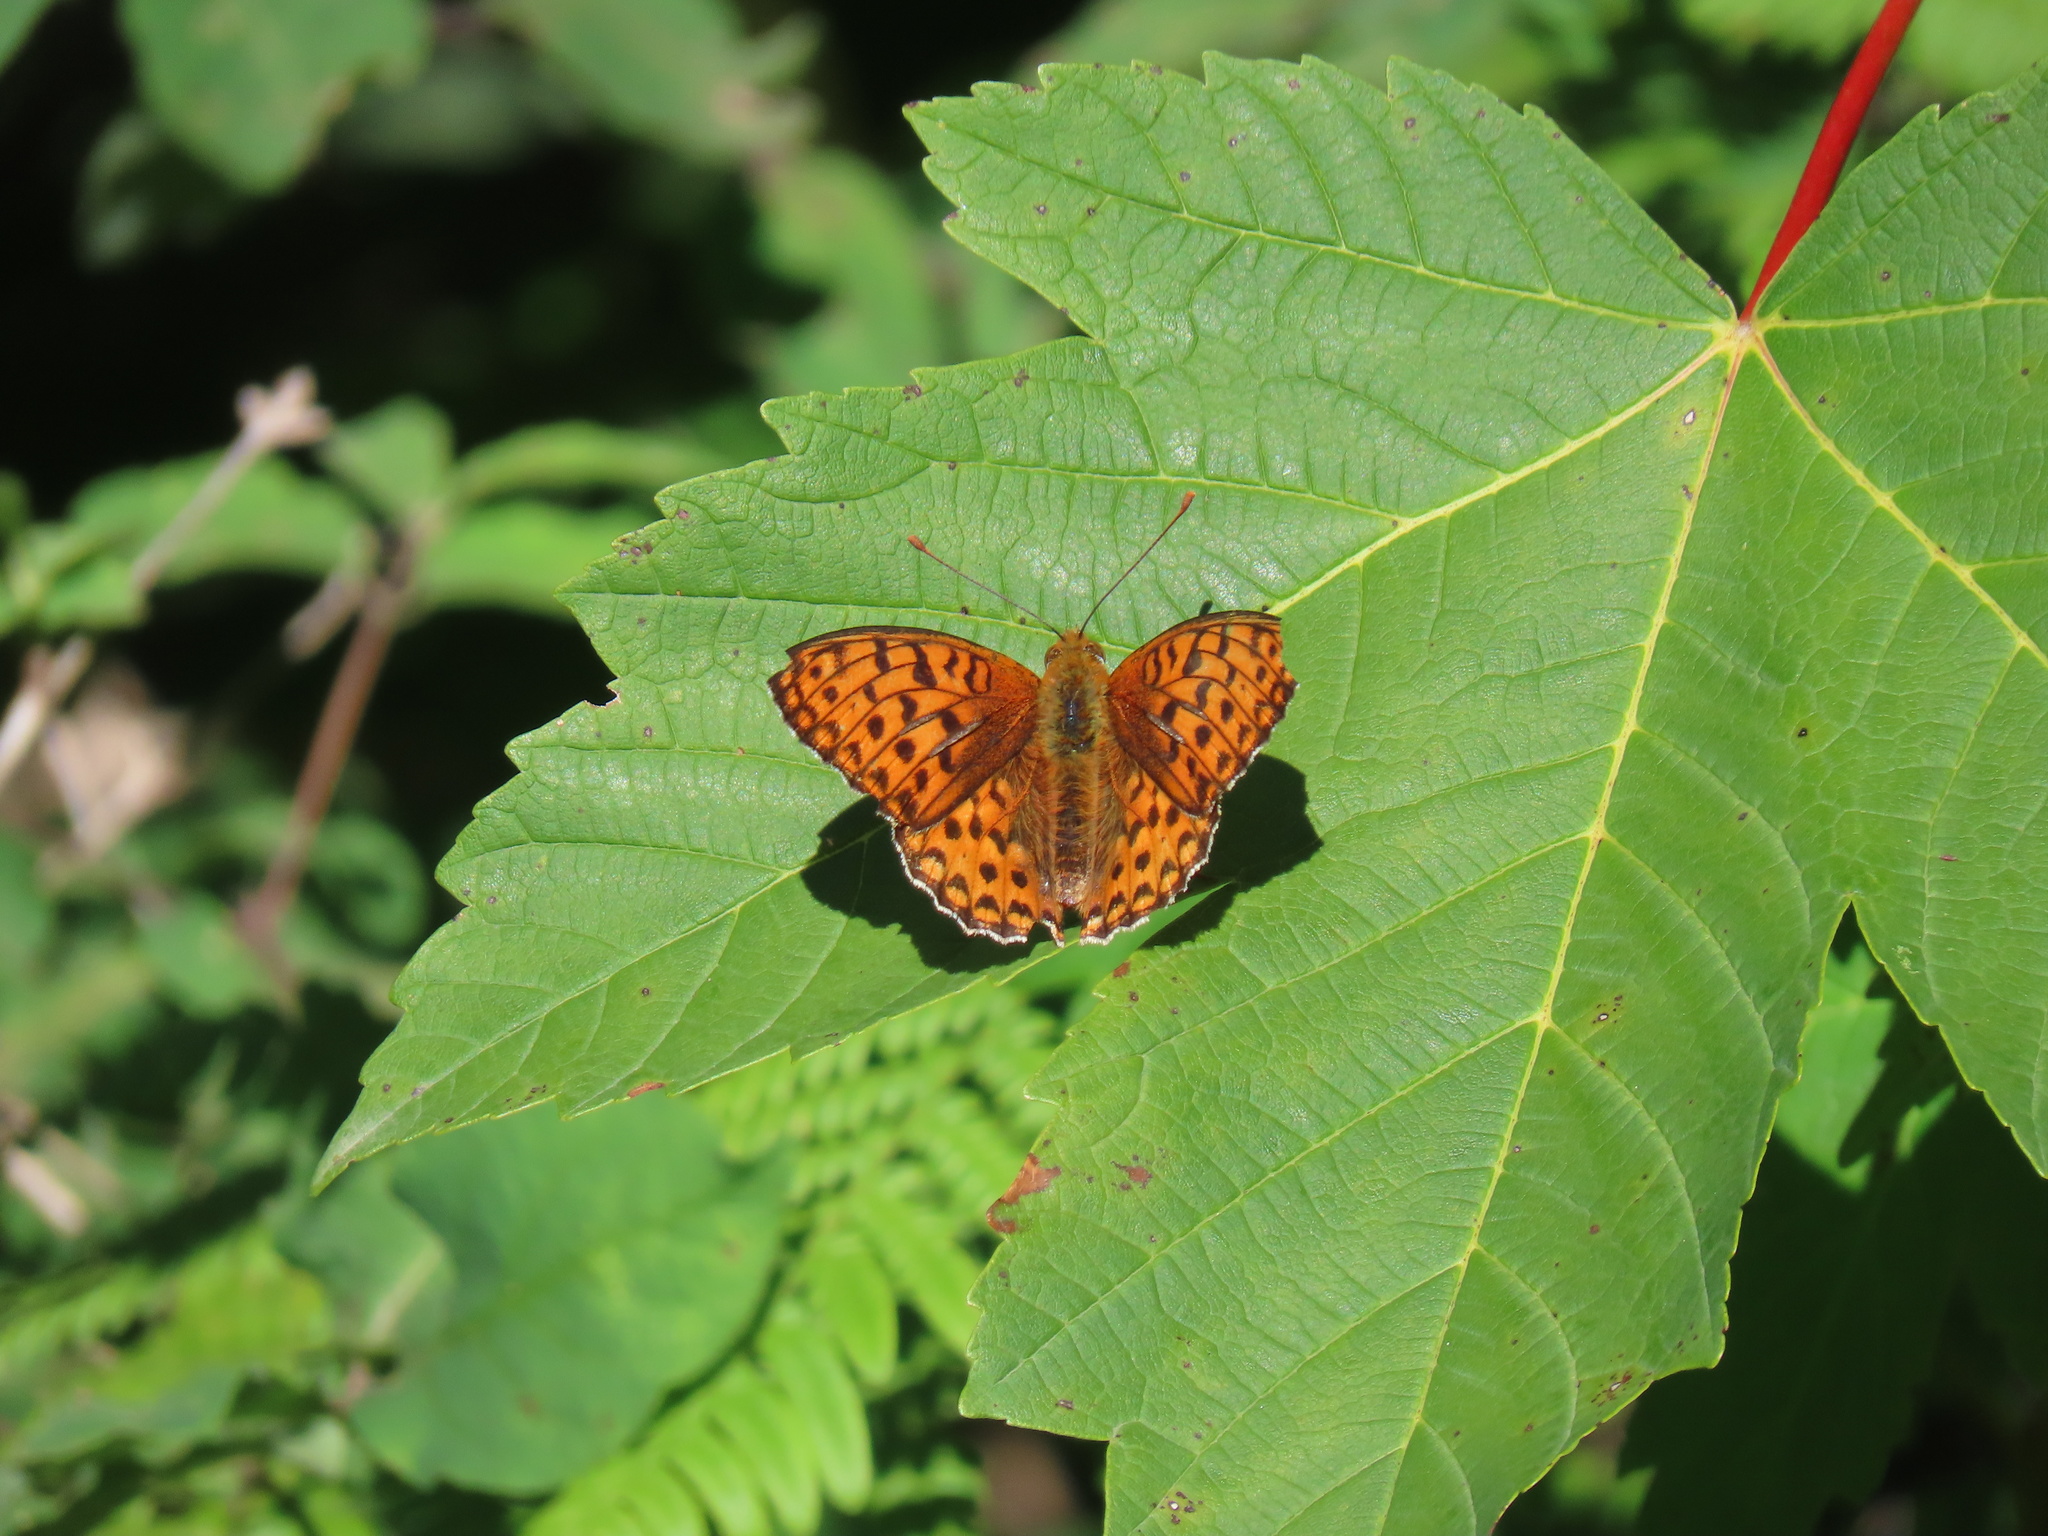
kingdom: Animalia
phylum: Arthropoda
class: Insecta
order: Lepidoptera
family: Nymphalidae
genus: Fabriciana
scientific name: Fabriciana adippe
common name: High brown fritillary
